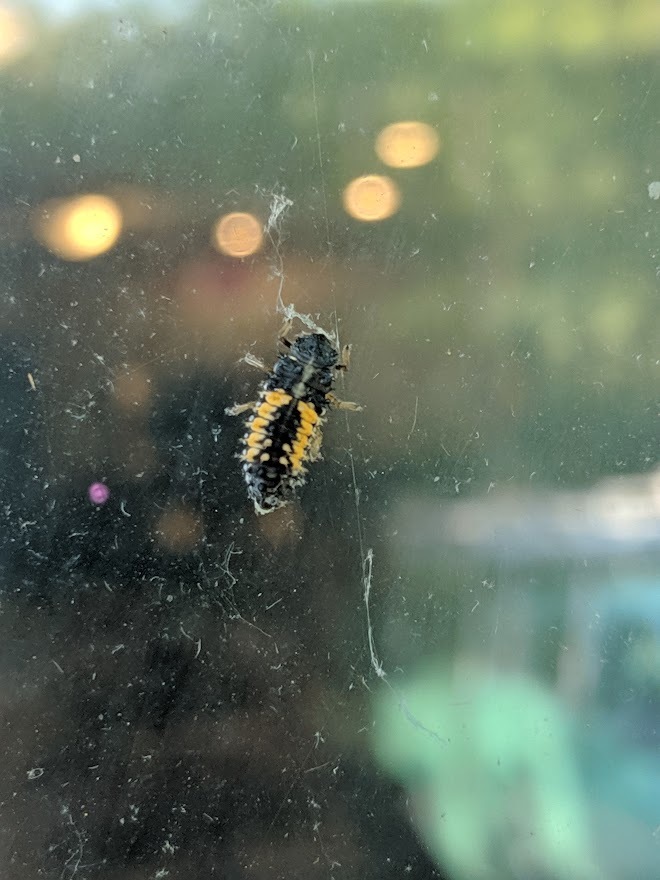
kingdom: Animalia
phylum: Arthropoda
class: Insecta
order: Coleoptera
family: Coccinellidae
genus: Harmonia
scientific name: Harmonia axyridis
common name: Harlequin ladybird
